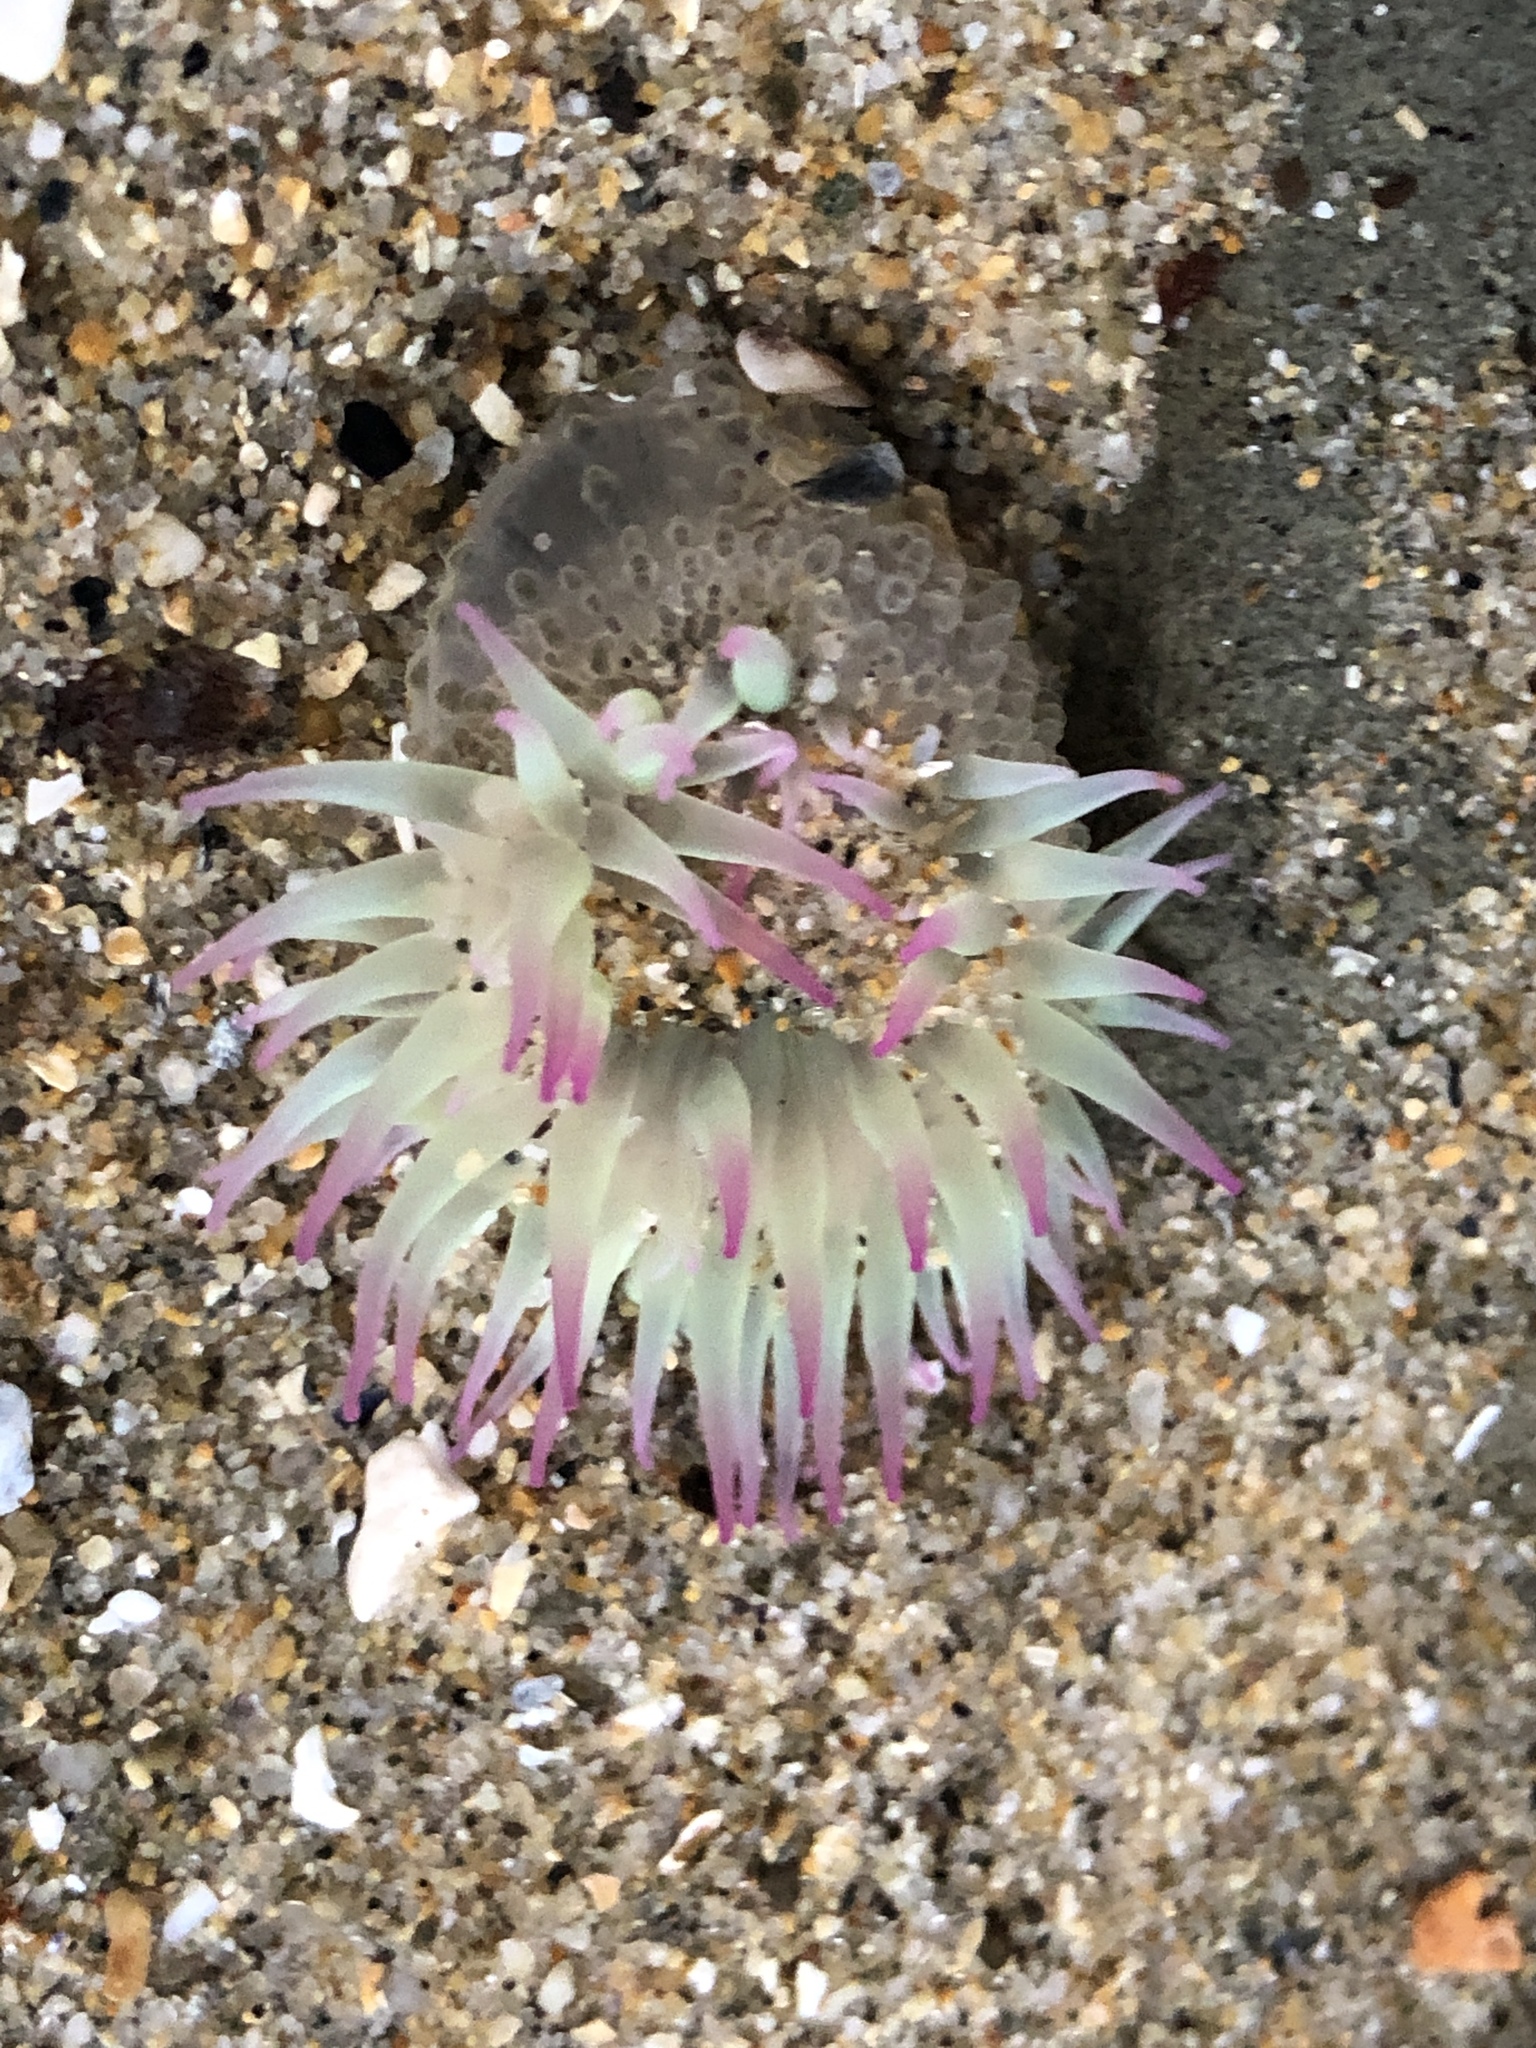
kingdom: Animalia
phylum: Cnidaria
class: Anthozoa
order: Actiniaria
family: Actiniidae
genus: Anthopleura
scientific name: Anthopleura elegantissima
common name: Clonal anemone
